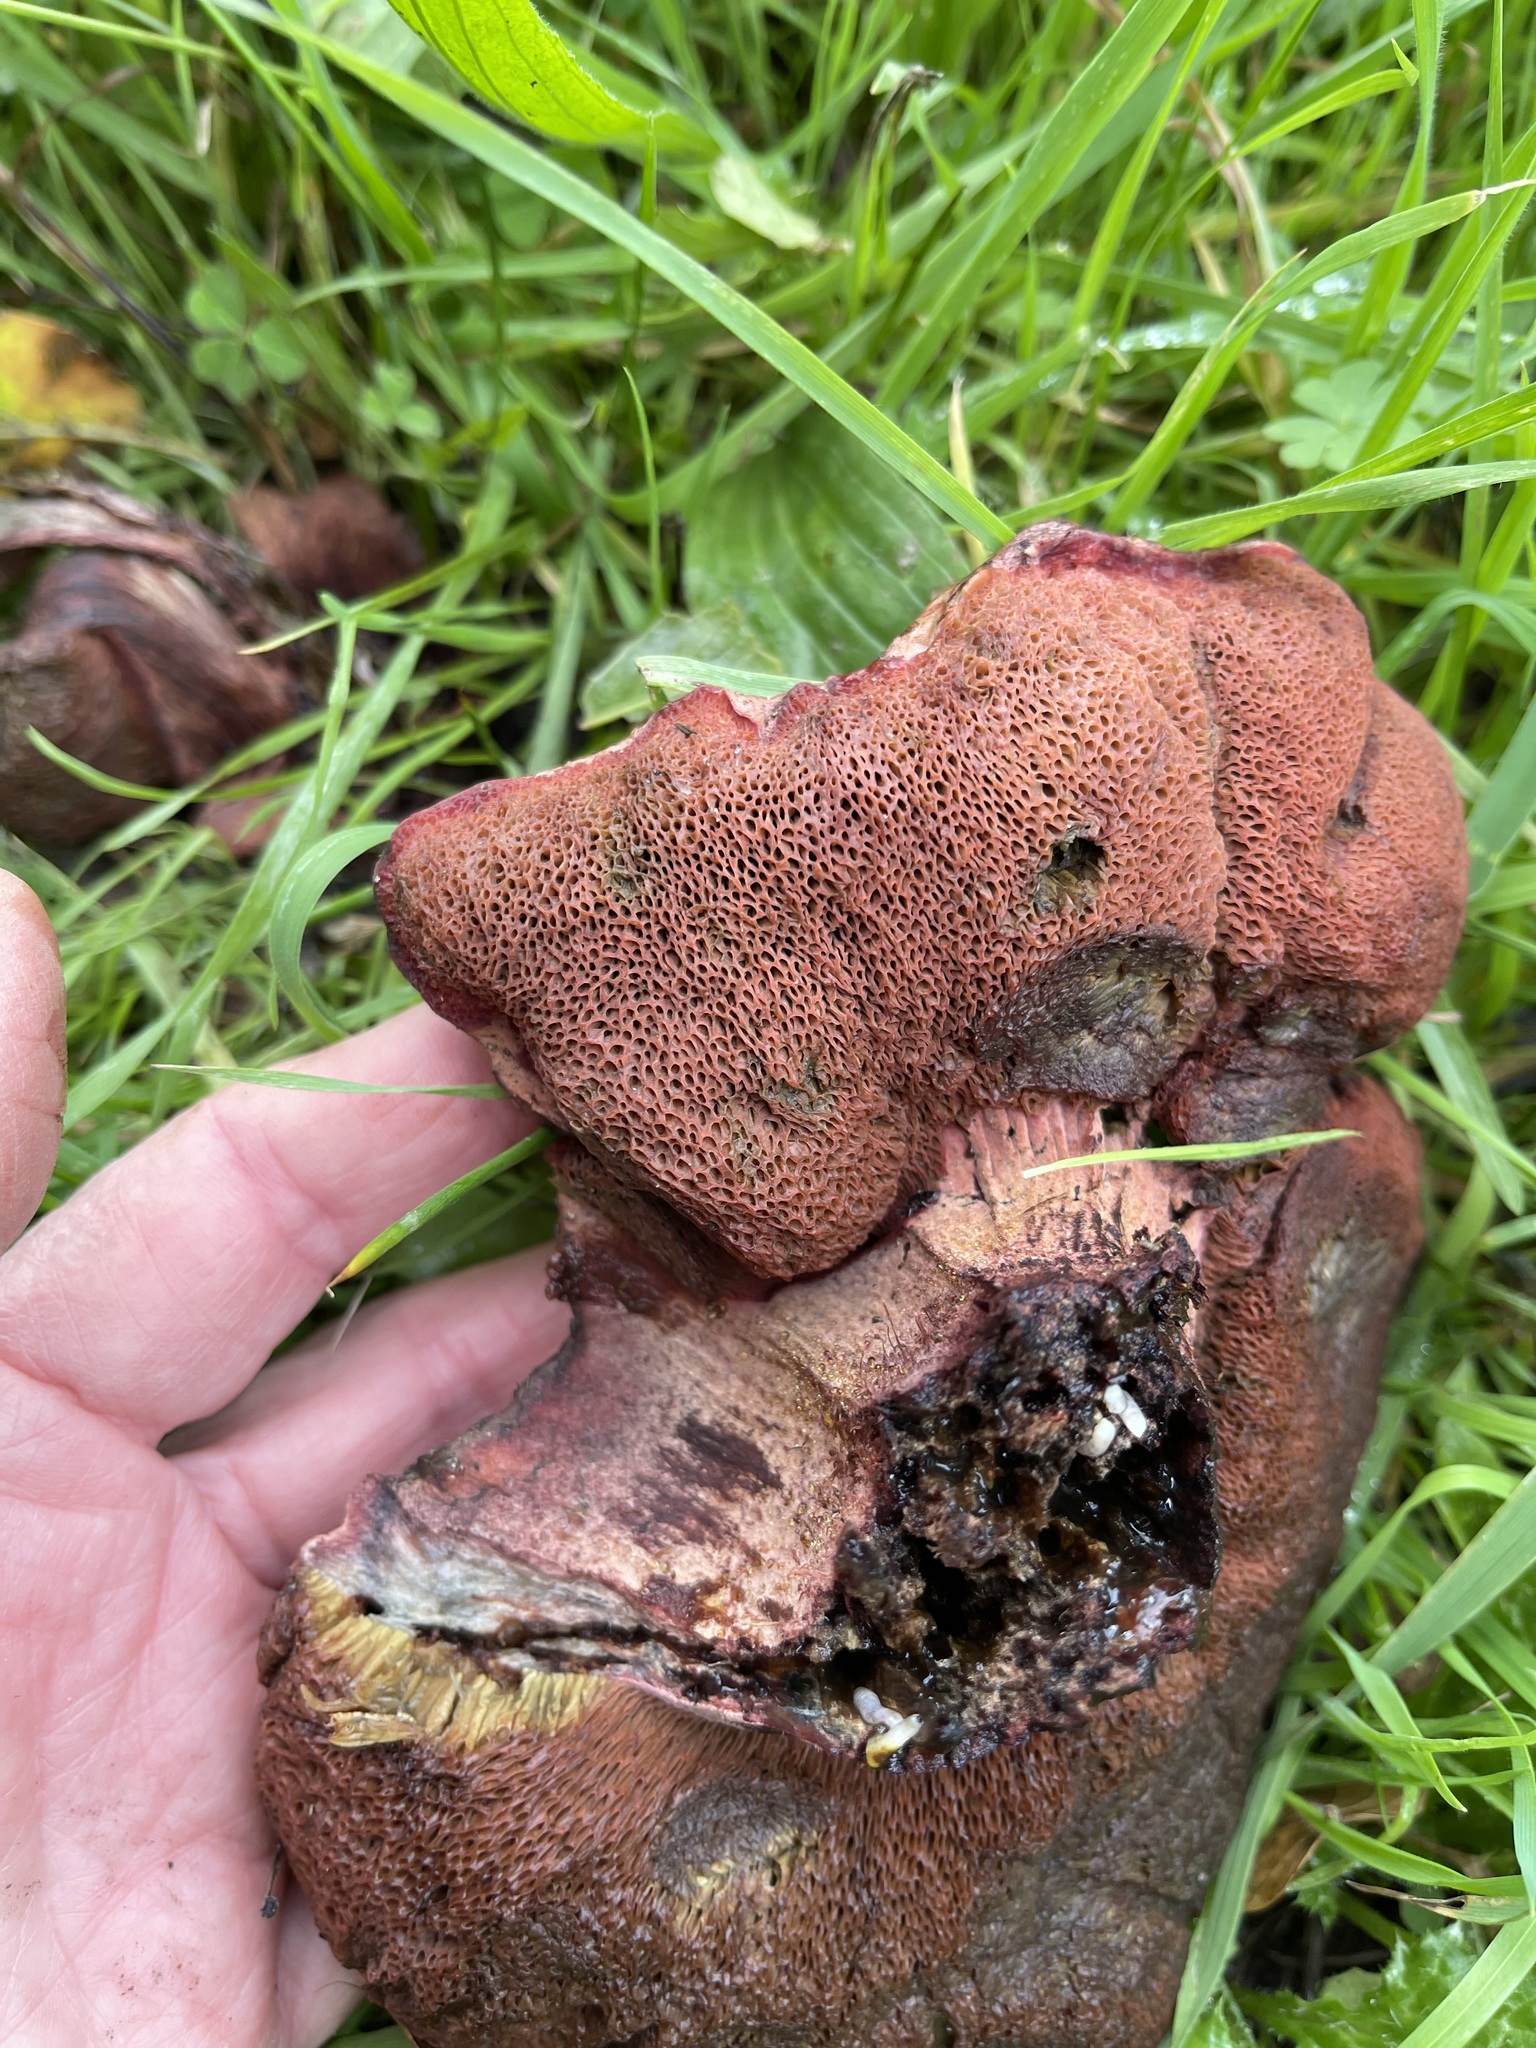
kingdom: Fungi
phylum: Basidiomycota
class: Agaricomycetes
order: Boletales
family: Boletaceae
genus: Suillellus
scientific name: Suillellus amygdalinus
